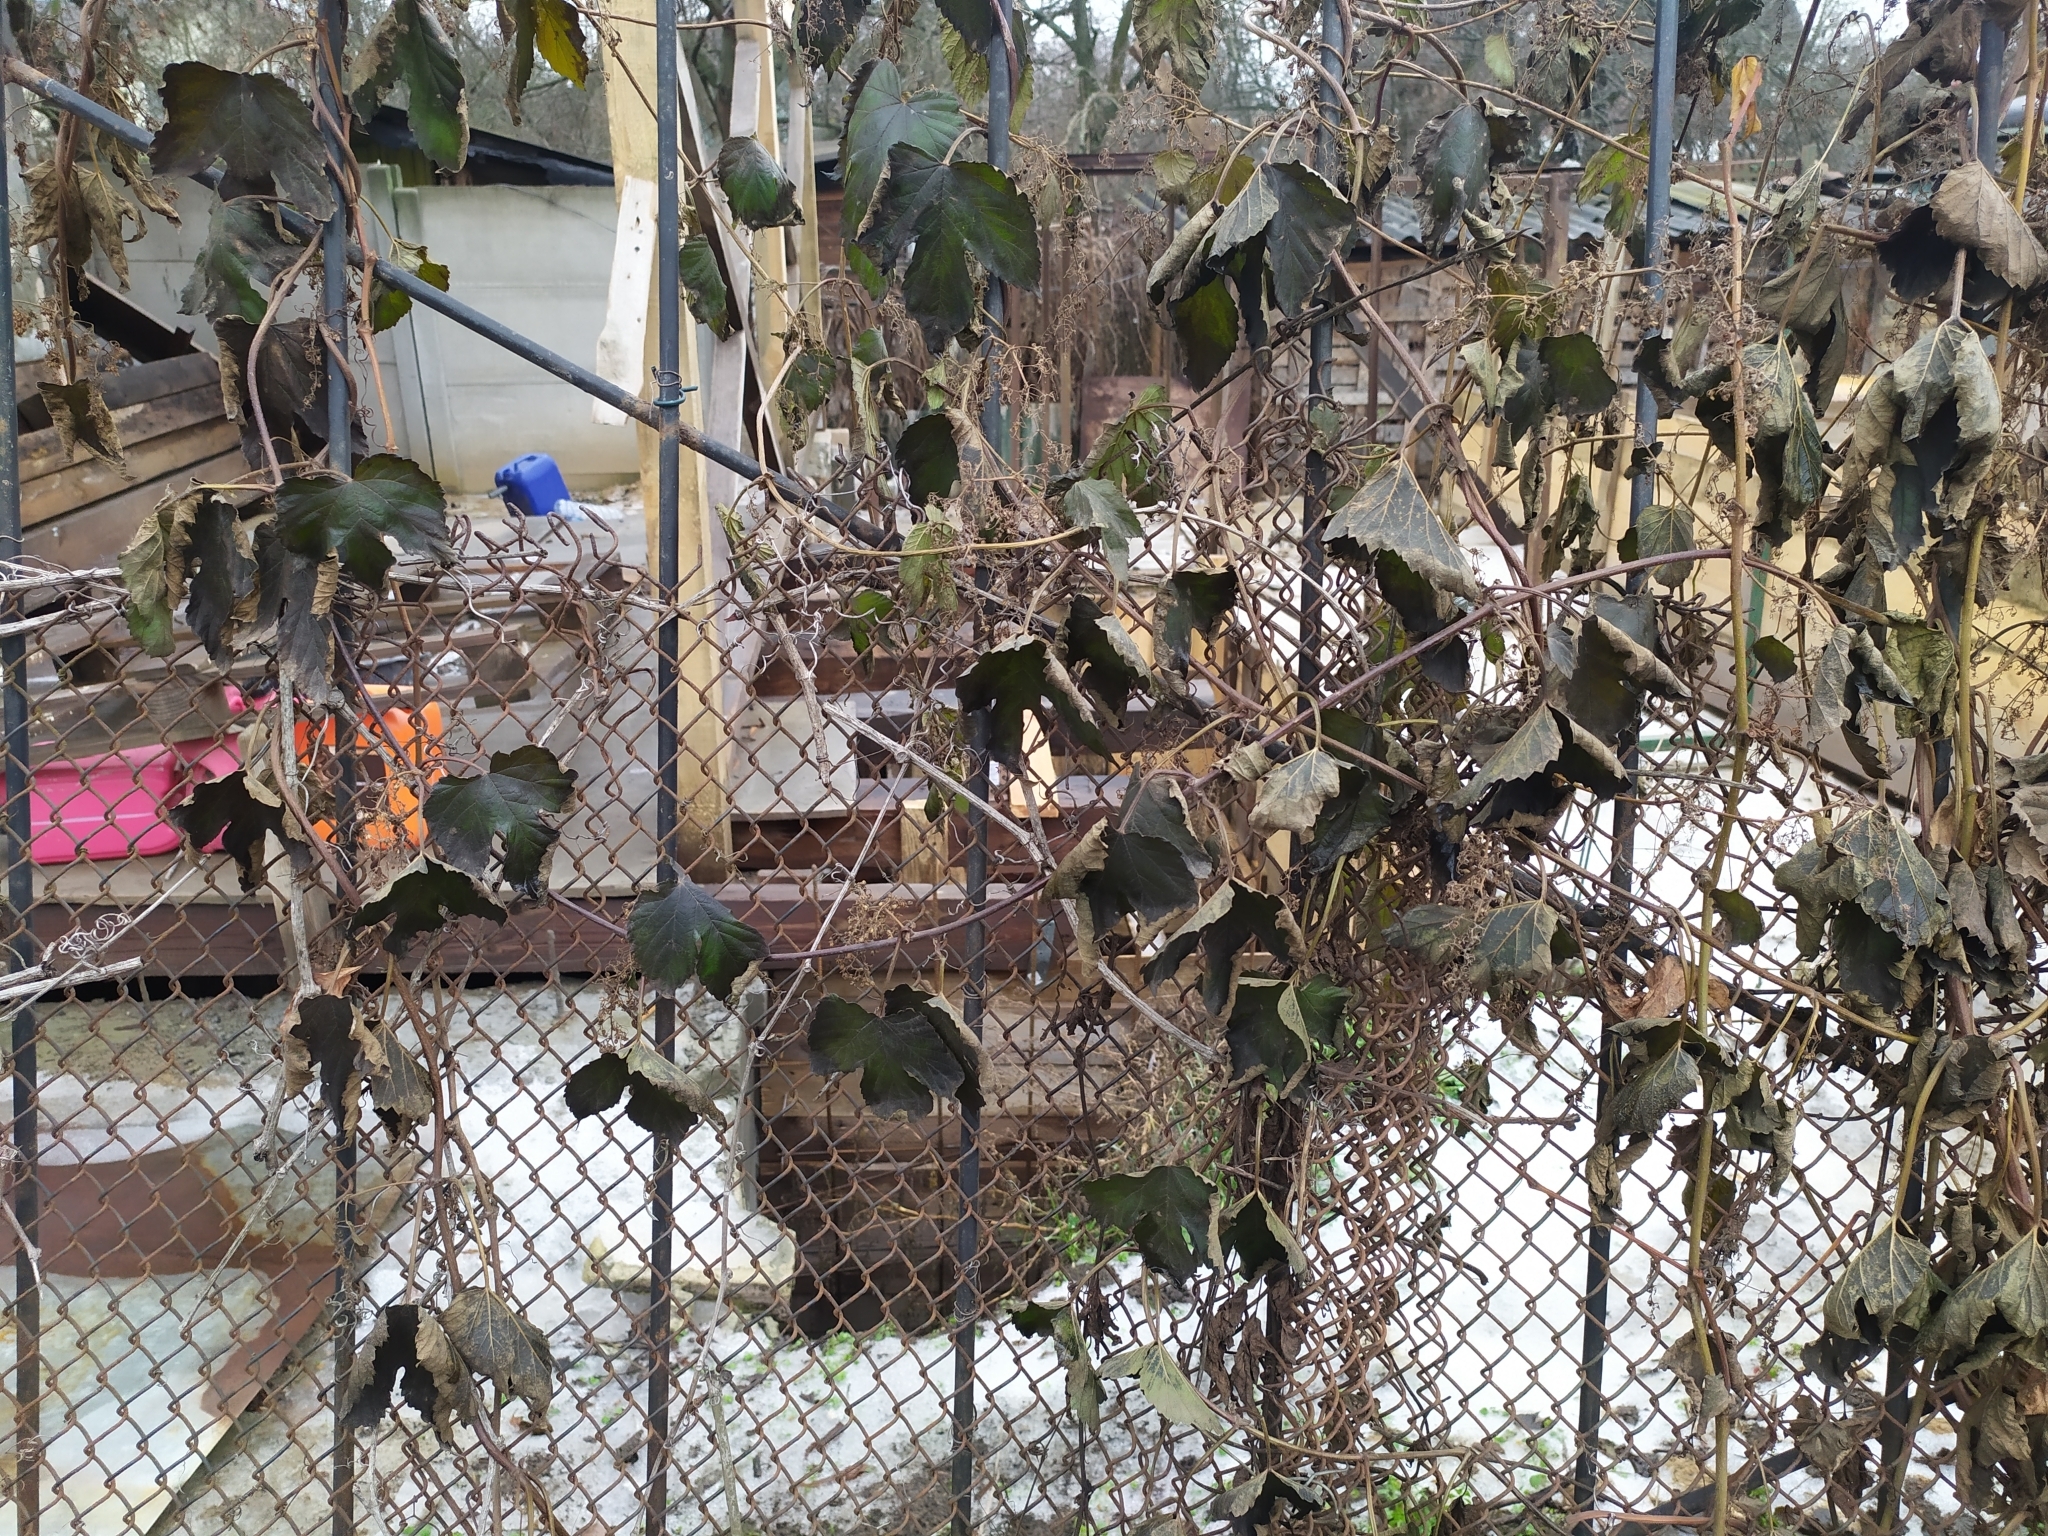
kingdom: Plantae
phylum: Tracheophyta
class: Magnoliopsida
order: Rosales
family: Cannabaceae
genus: Humulus
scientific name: Humulus lupulus
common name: Hop
